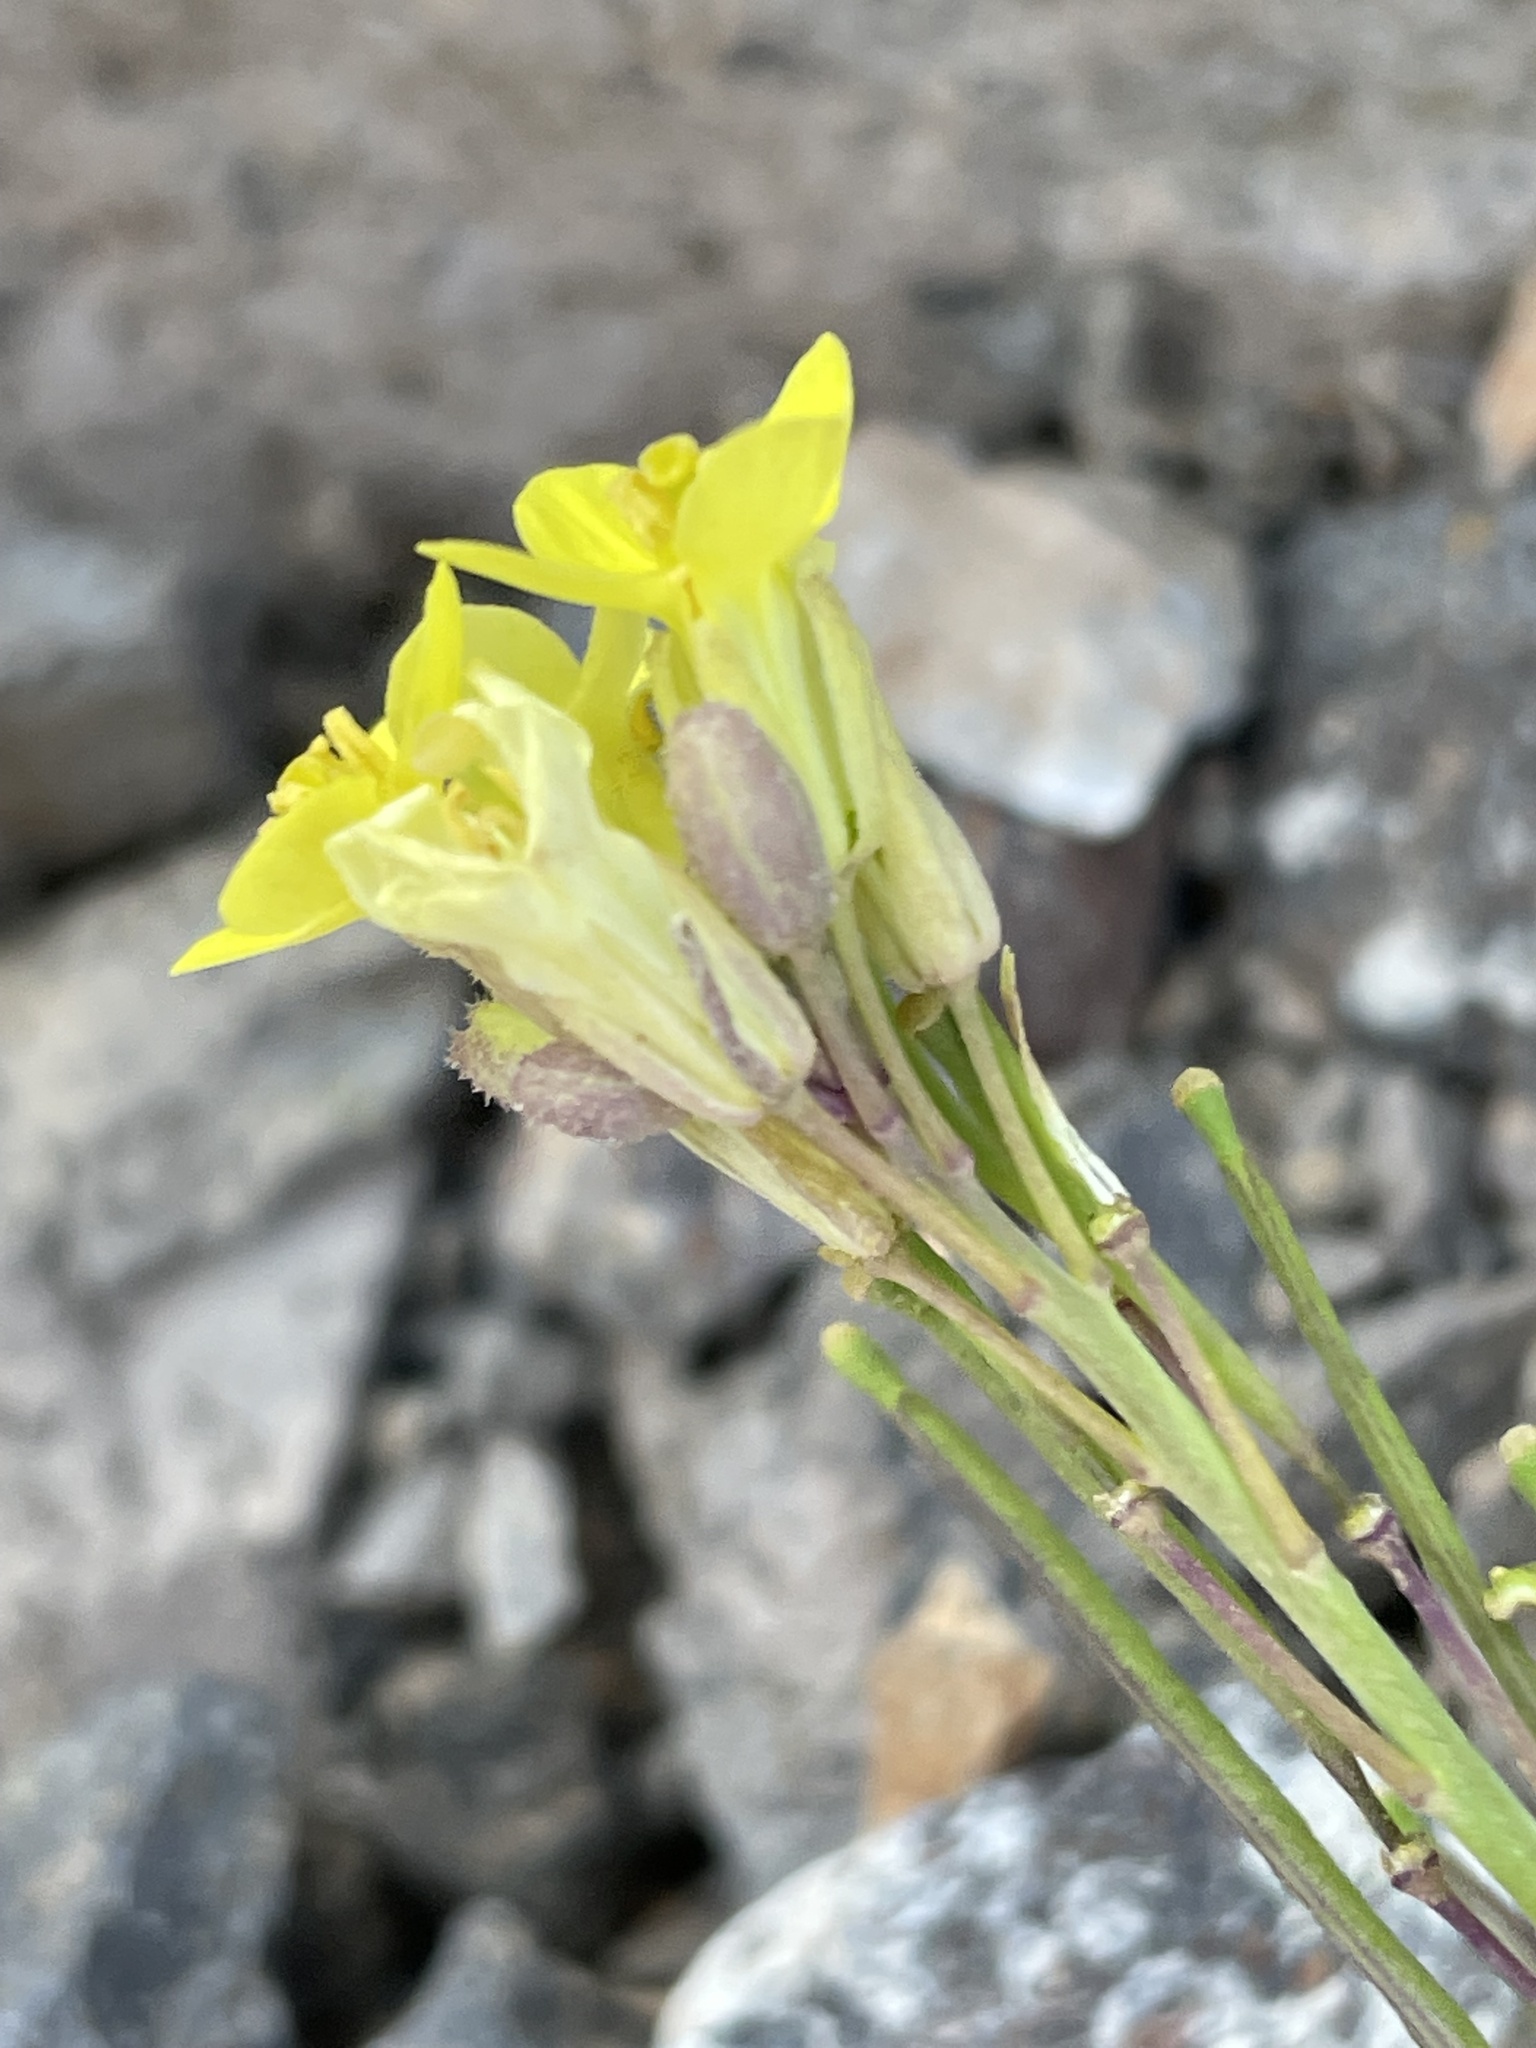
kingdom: Plantae
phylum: Tracheophyta
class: Magnoliopsida
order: Brassicales
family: Brassicaceae
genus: Diplotaxis
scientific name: Diplotaxis vogelii
